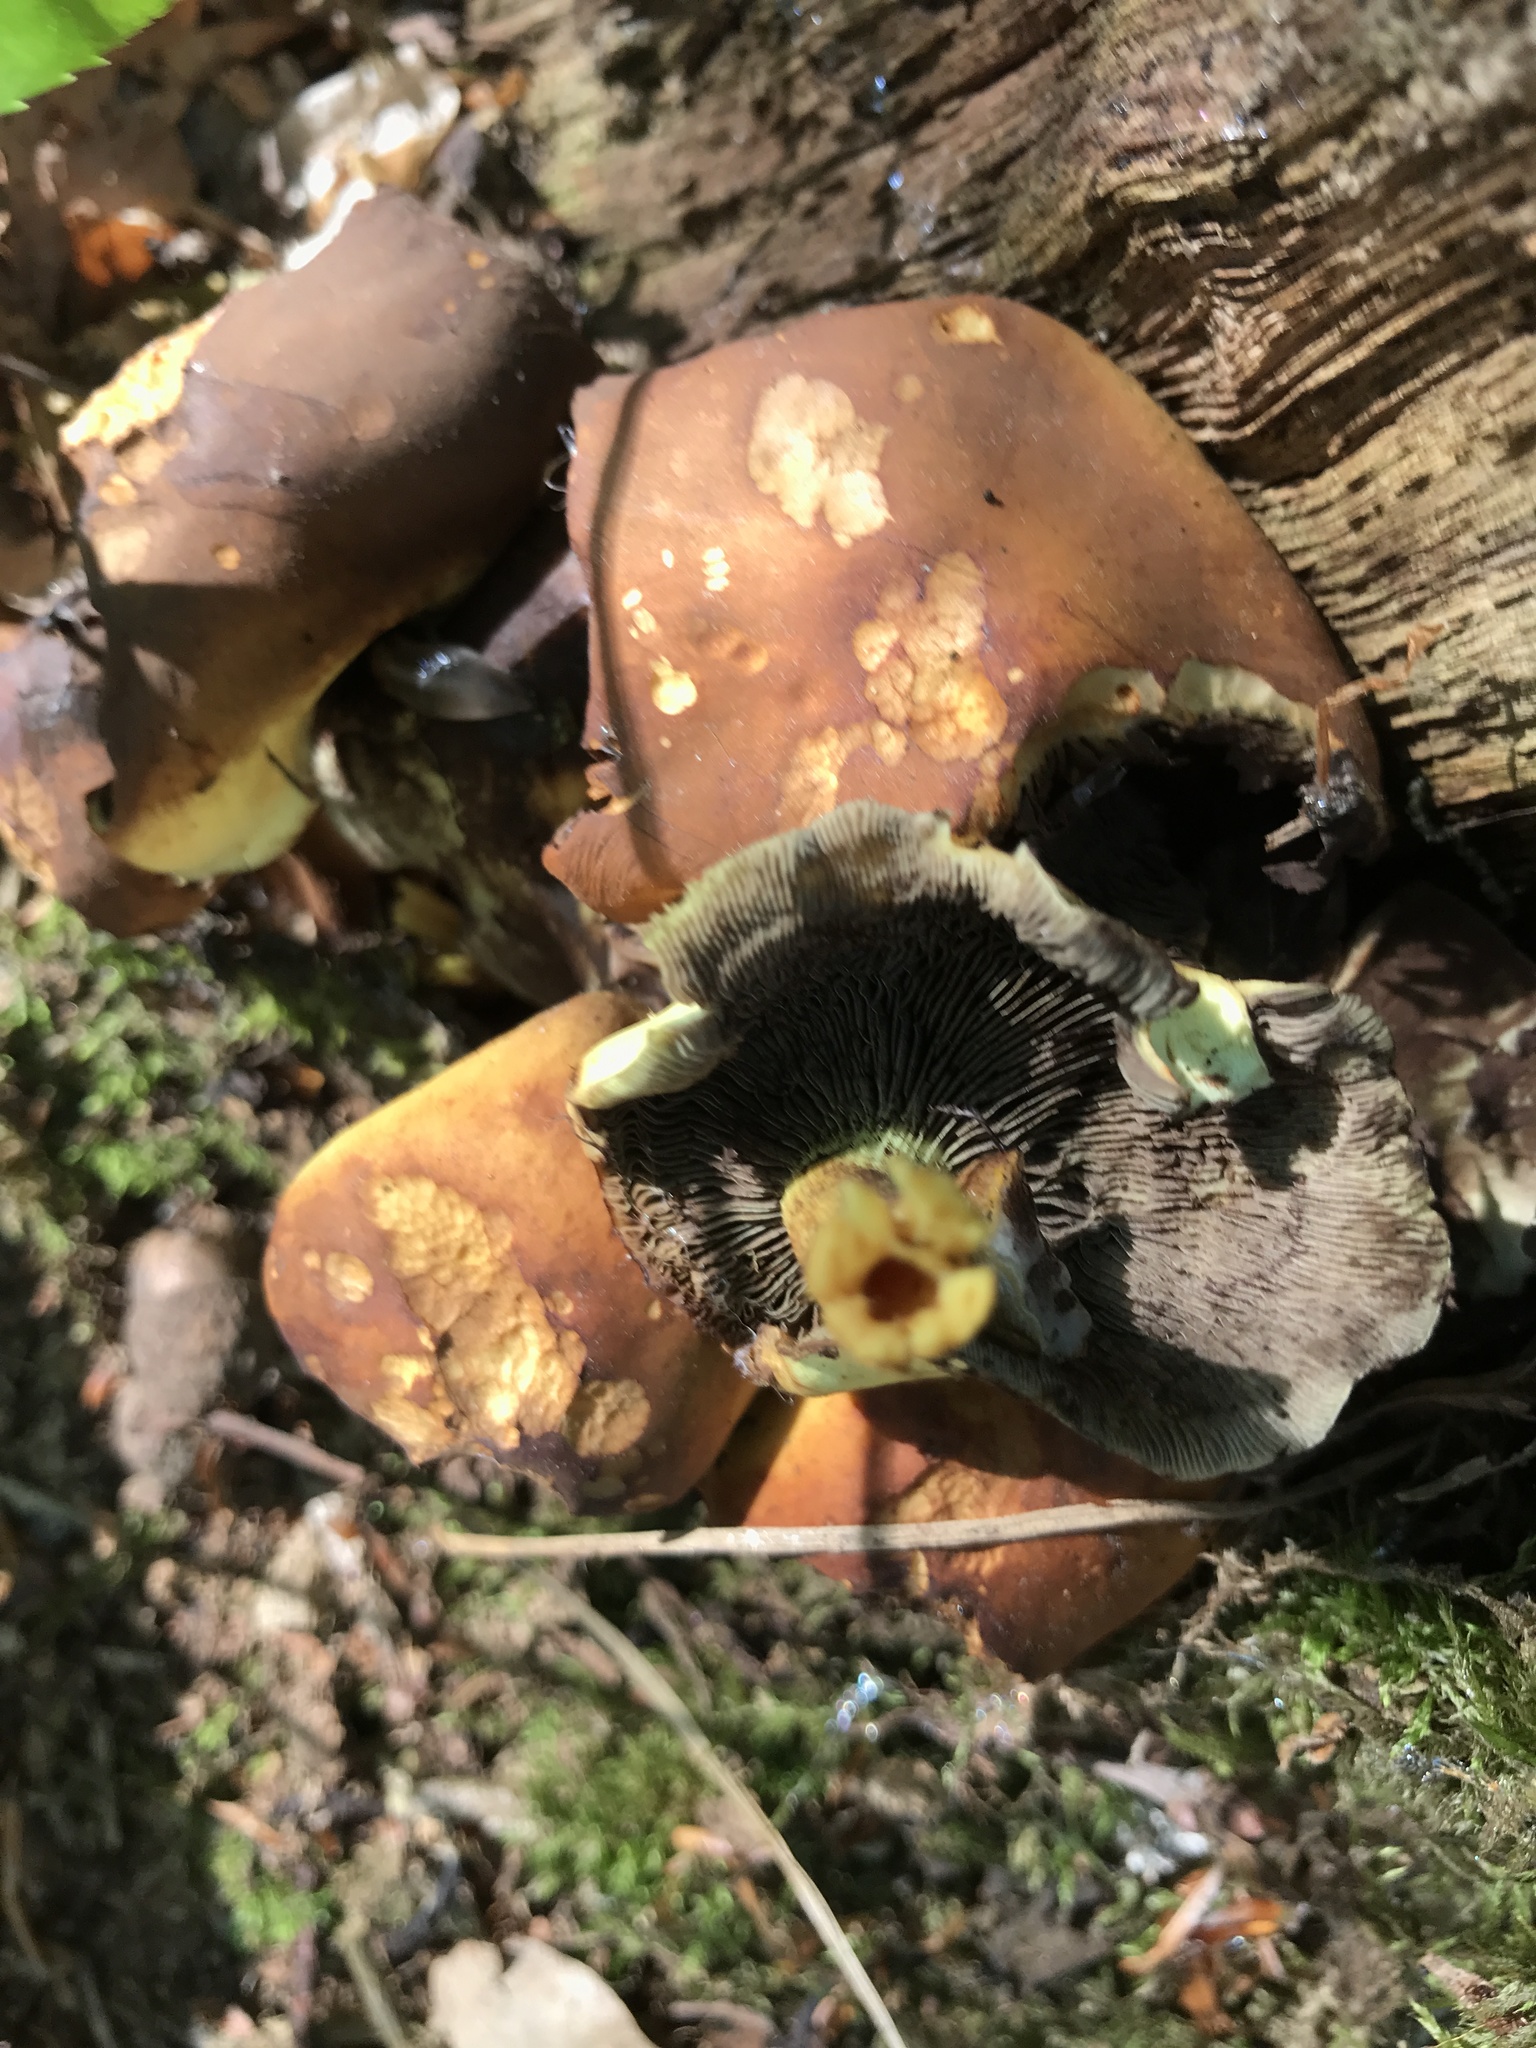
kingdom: Fungi
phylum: Basidiomycota
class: Agaricomycetes
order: Agaricales
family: Strophariaceae
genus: Hypholoma
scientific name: Hypholoma fasciculare
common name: Sulphur tuft
